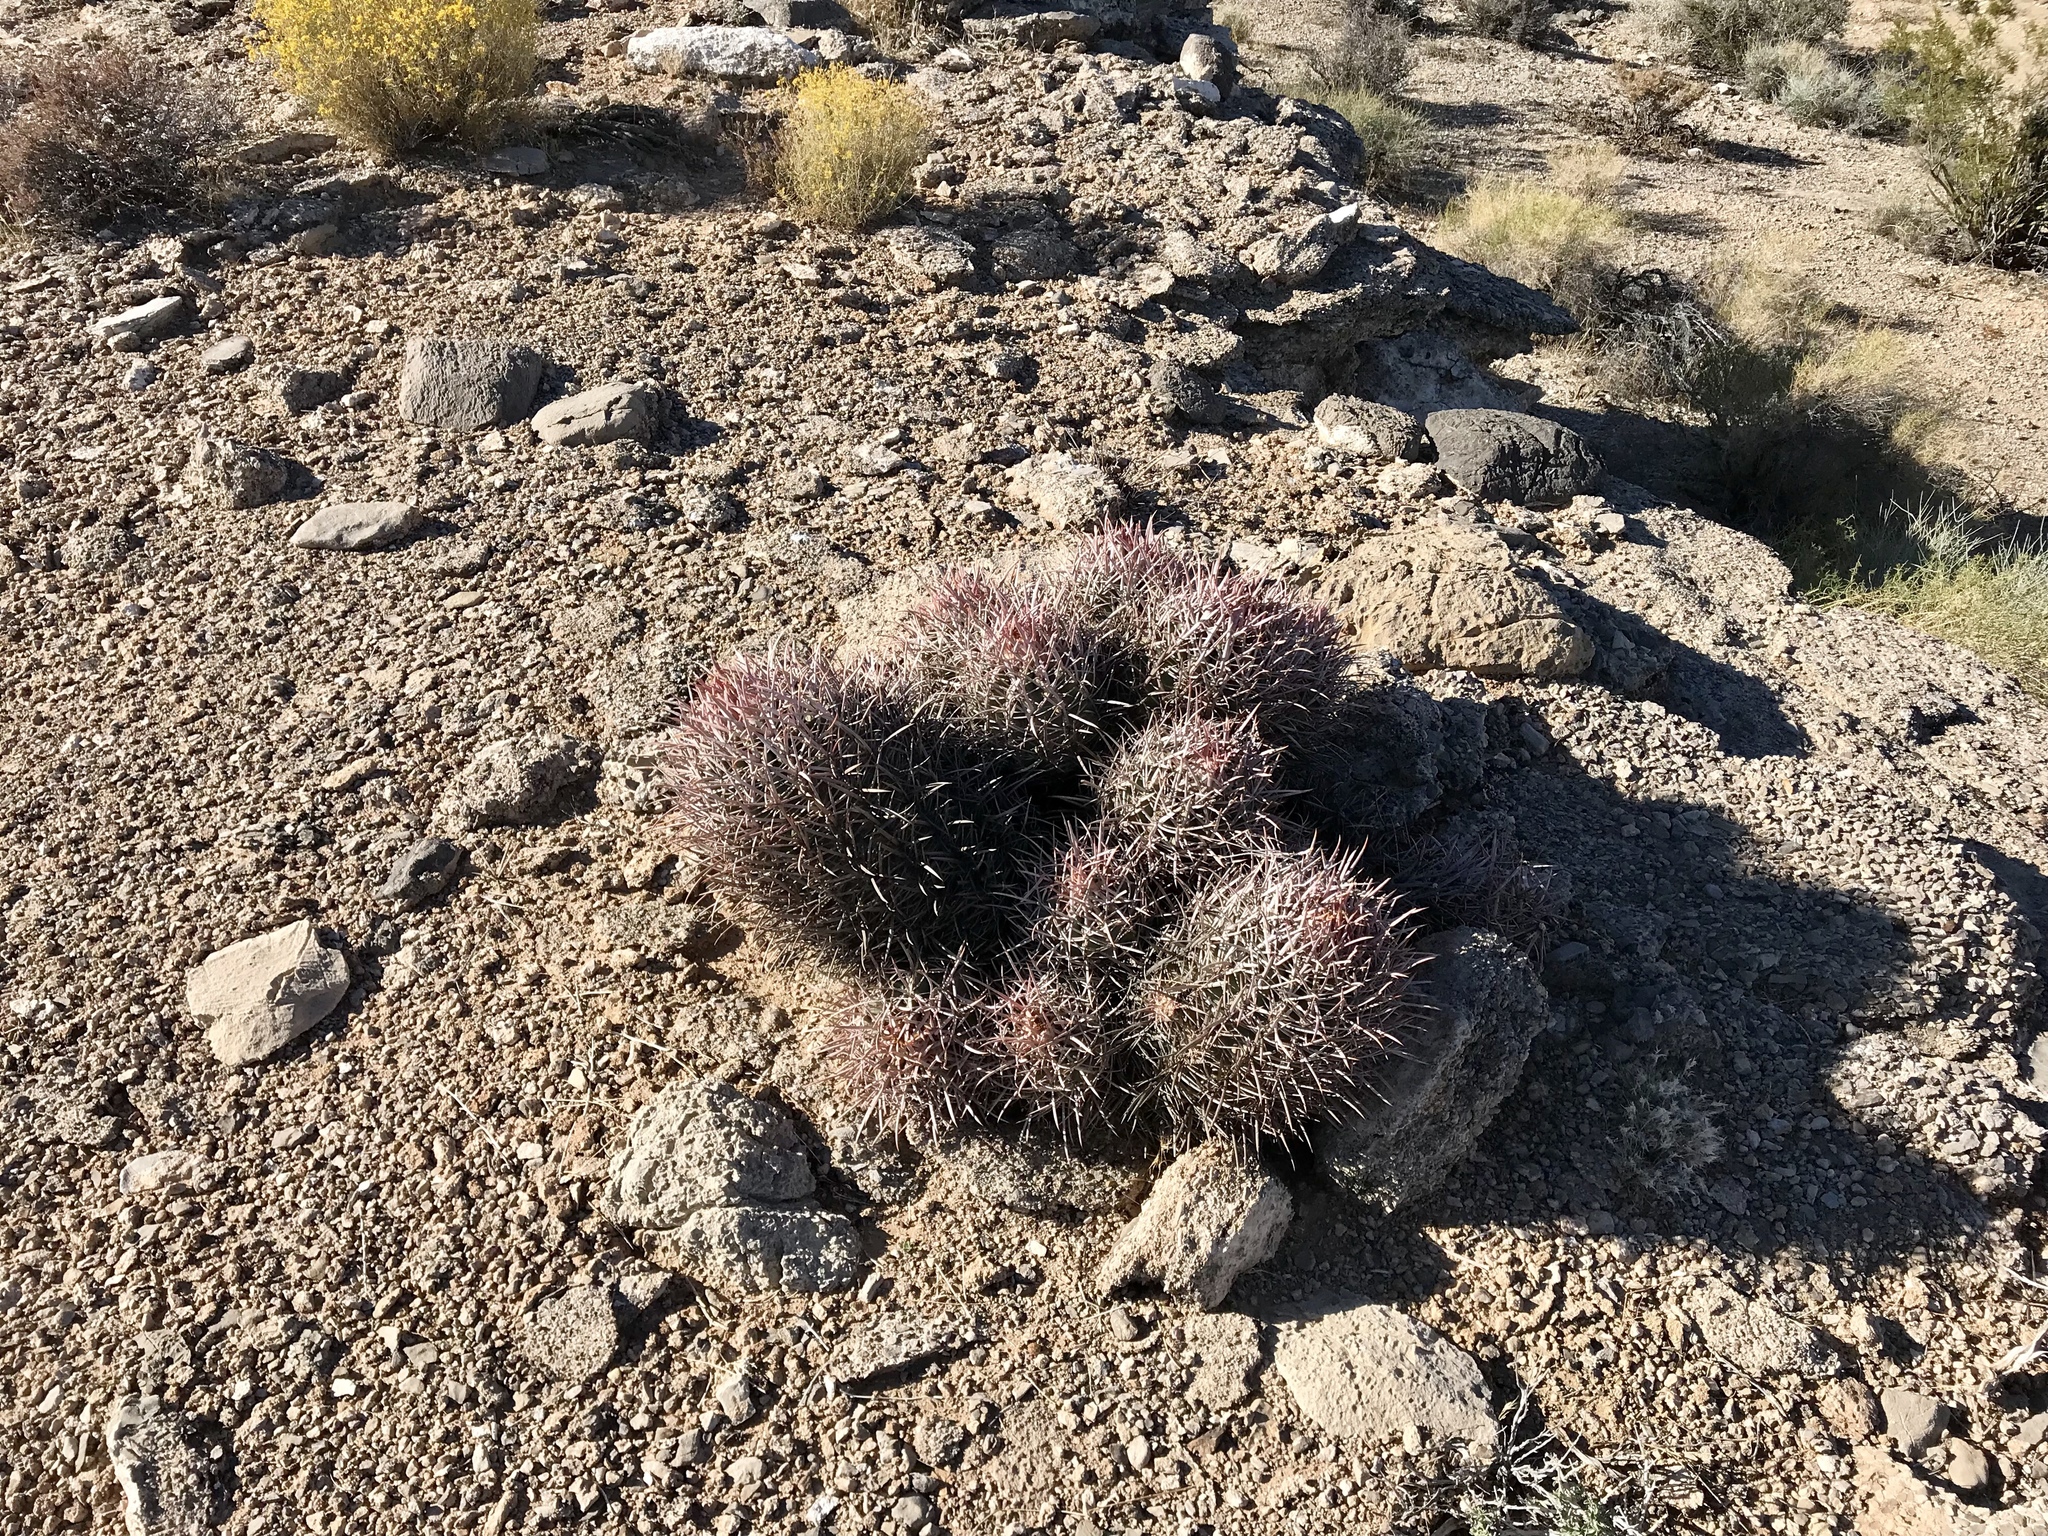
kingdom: Plantae
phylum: Tracheophyta
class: Magnoliopsida
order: Caryophyllales
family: Cactaceae
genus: Echinocactus
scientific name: Echinocactus polycephalus
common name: Cottontop cactus
